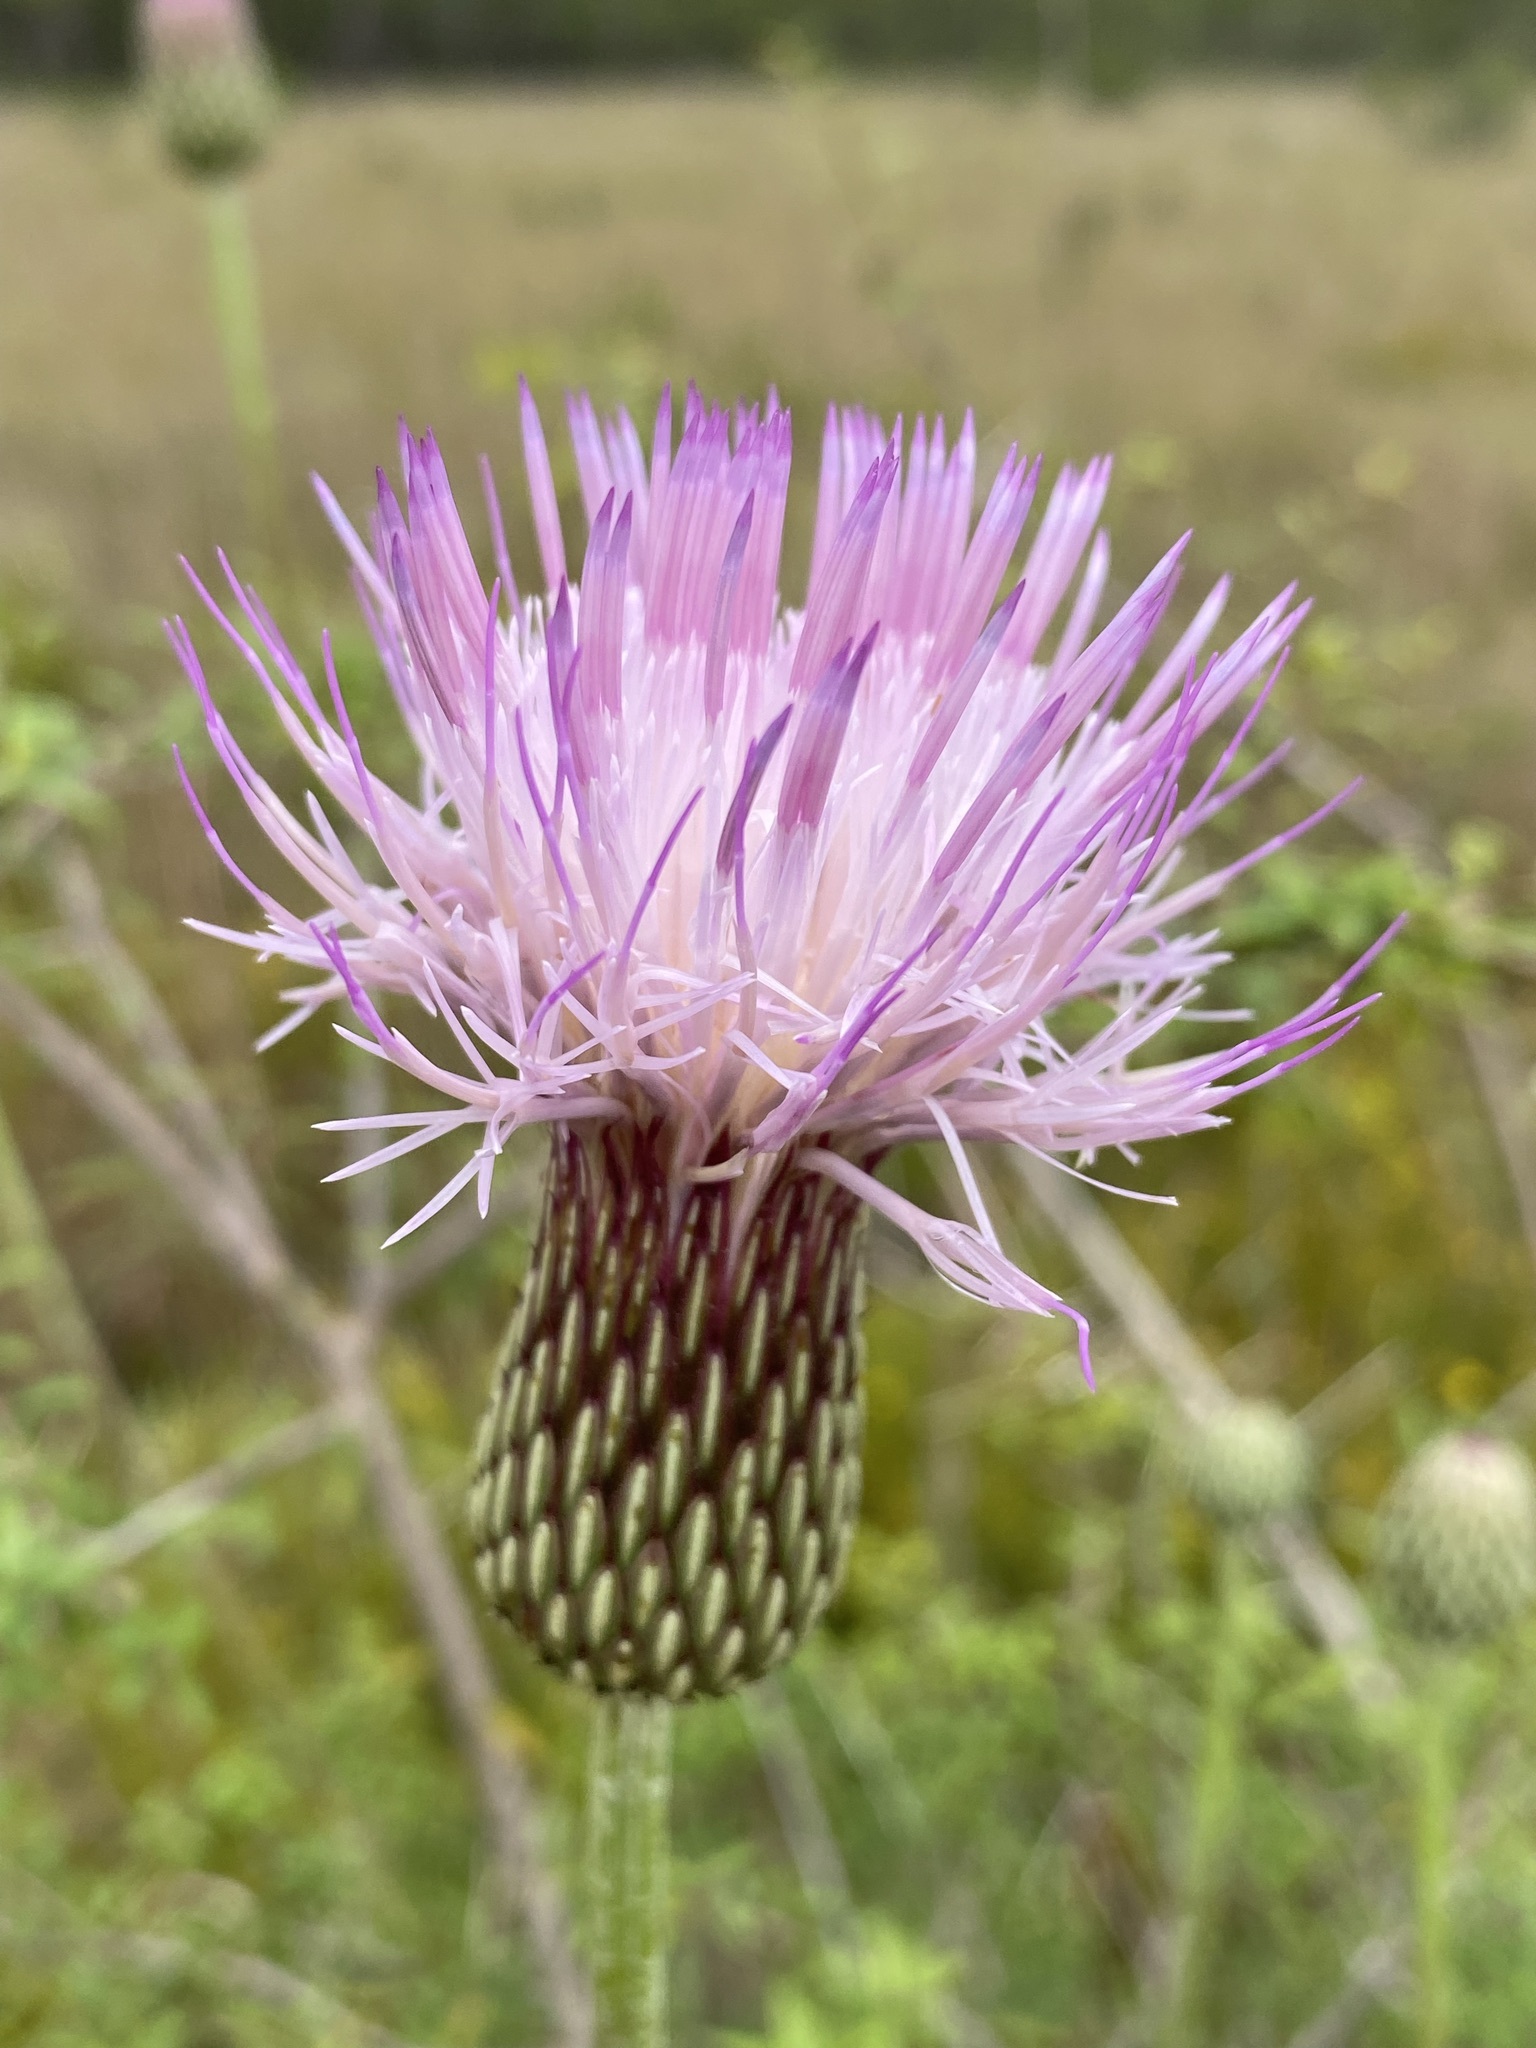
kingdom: Plantae
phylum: Tracheophyta
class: Magnoliopsida
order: Asterales
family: Asteraceae
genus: Cirsium
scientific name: Cirsium lecontei
